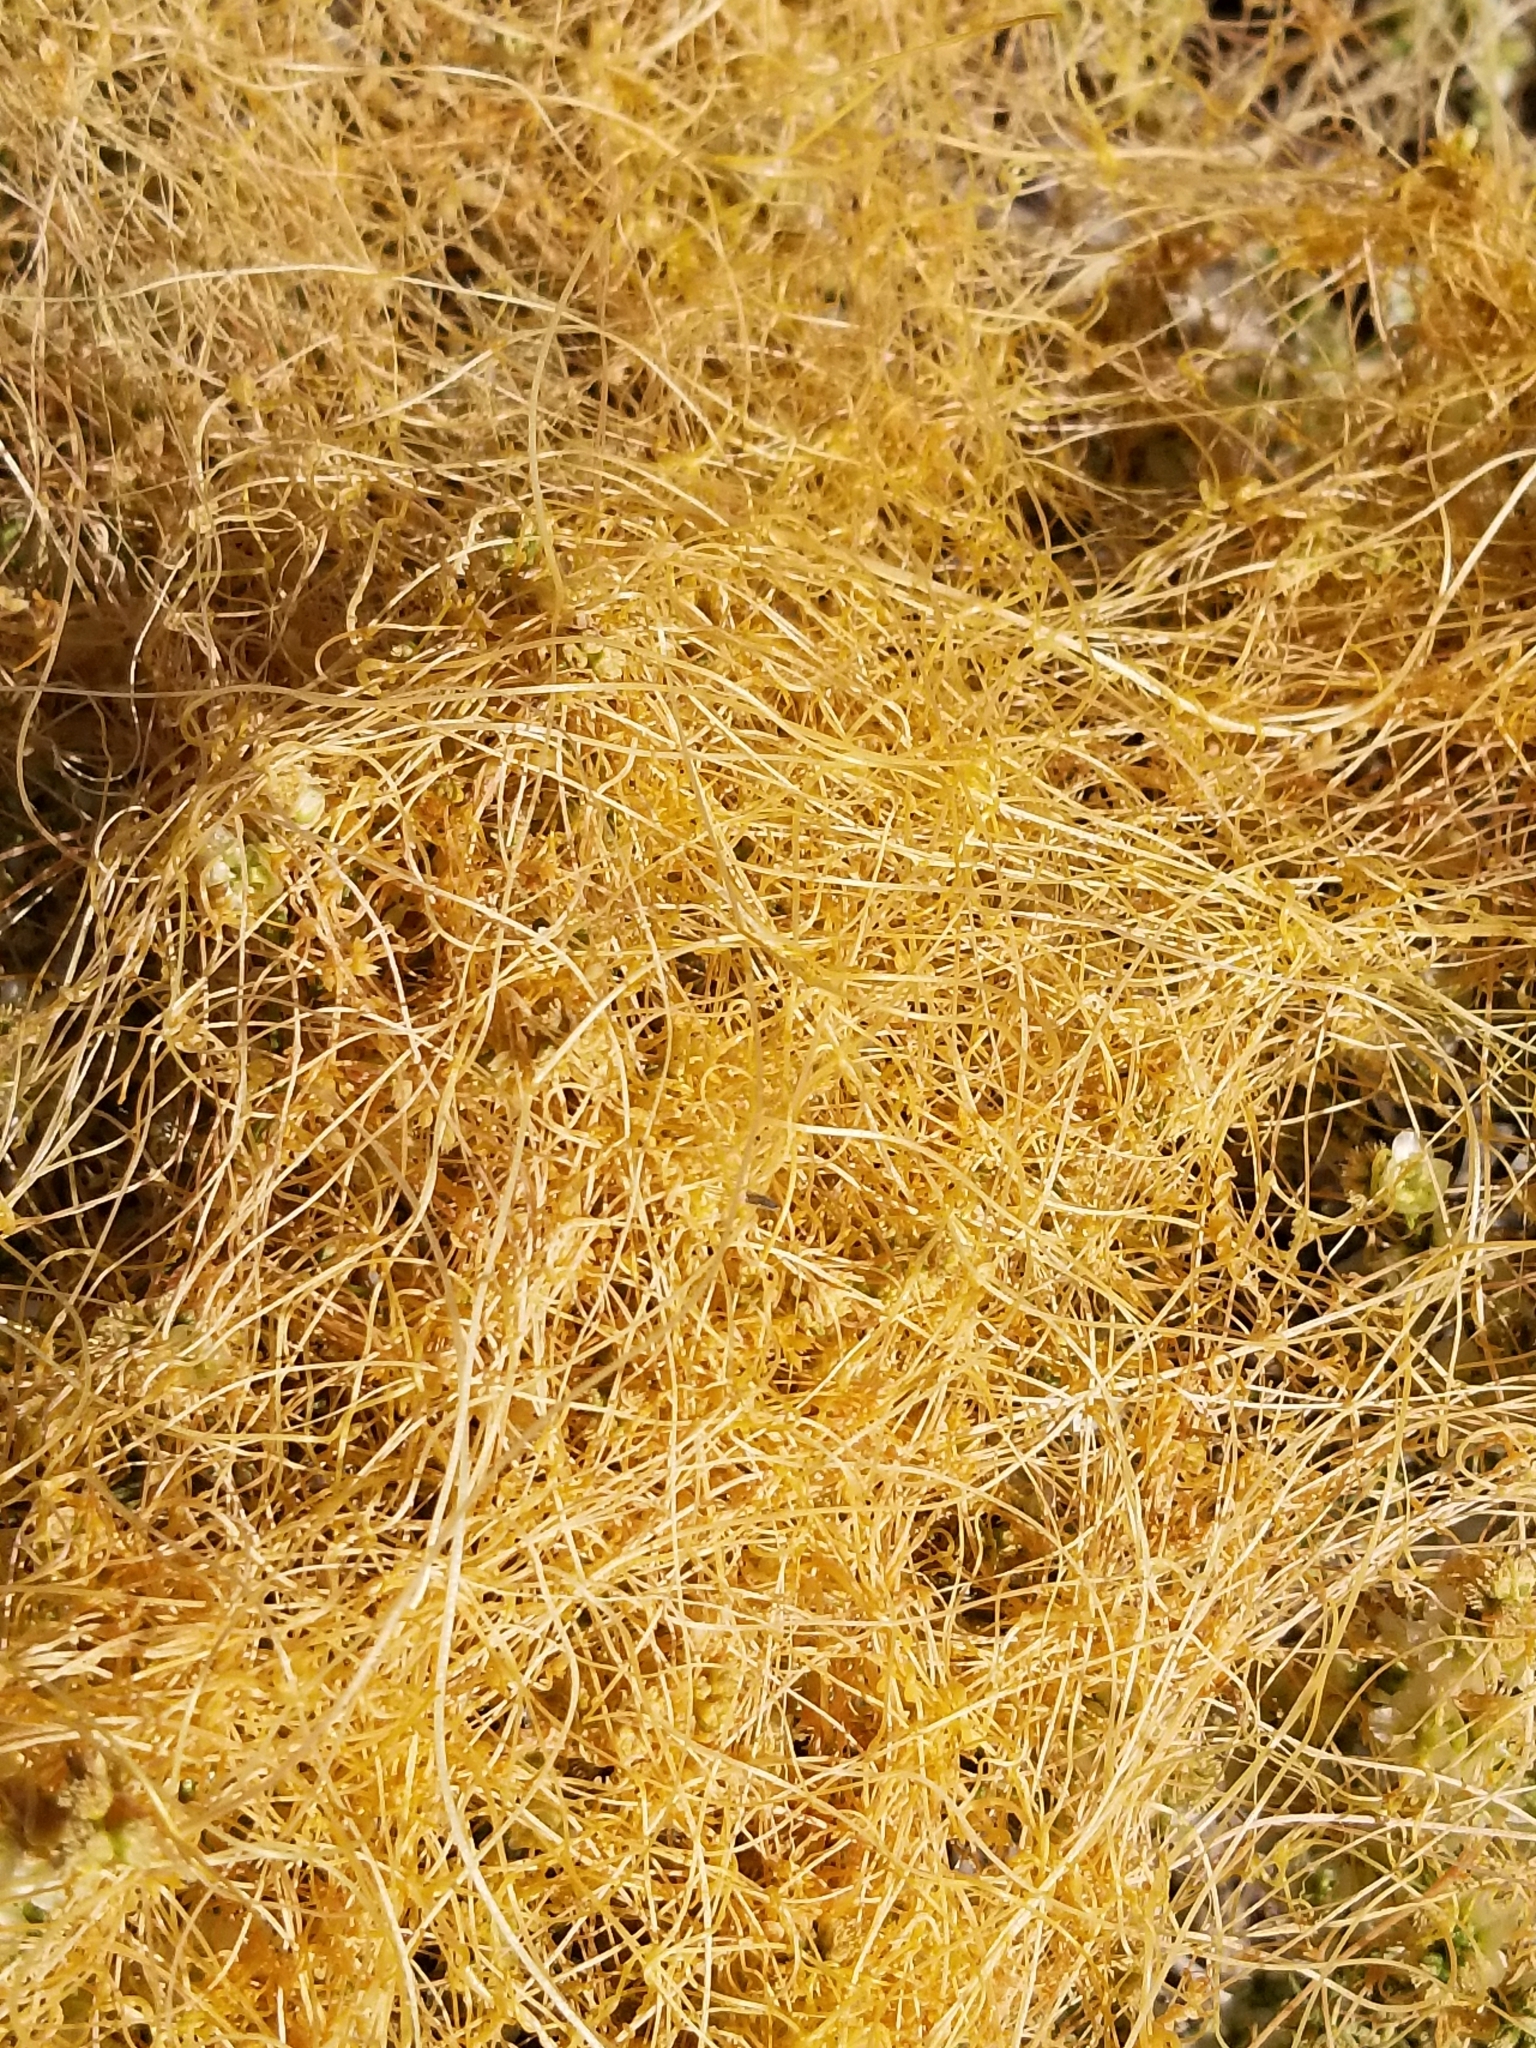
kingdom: Plantae
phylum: Tracheophyta
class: Magnoliopsida
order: Solanales
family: Convolvulaceae
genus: Cuscuta
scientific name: Cuscuta californica
